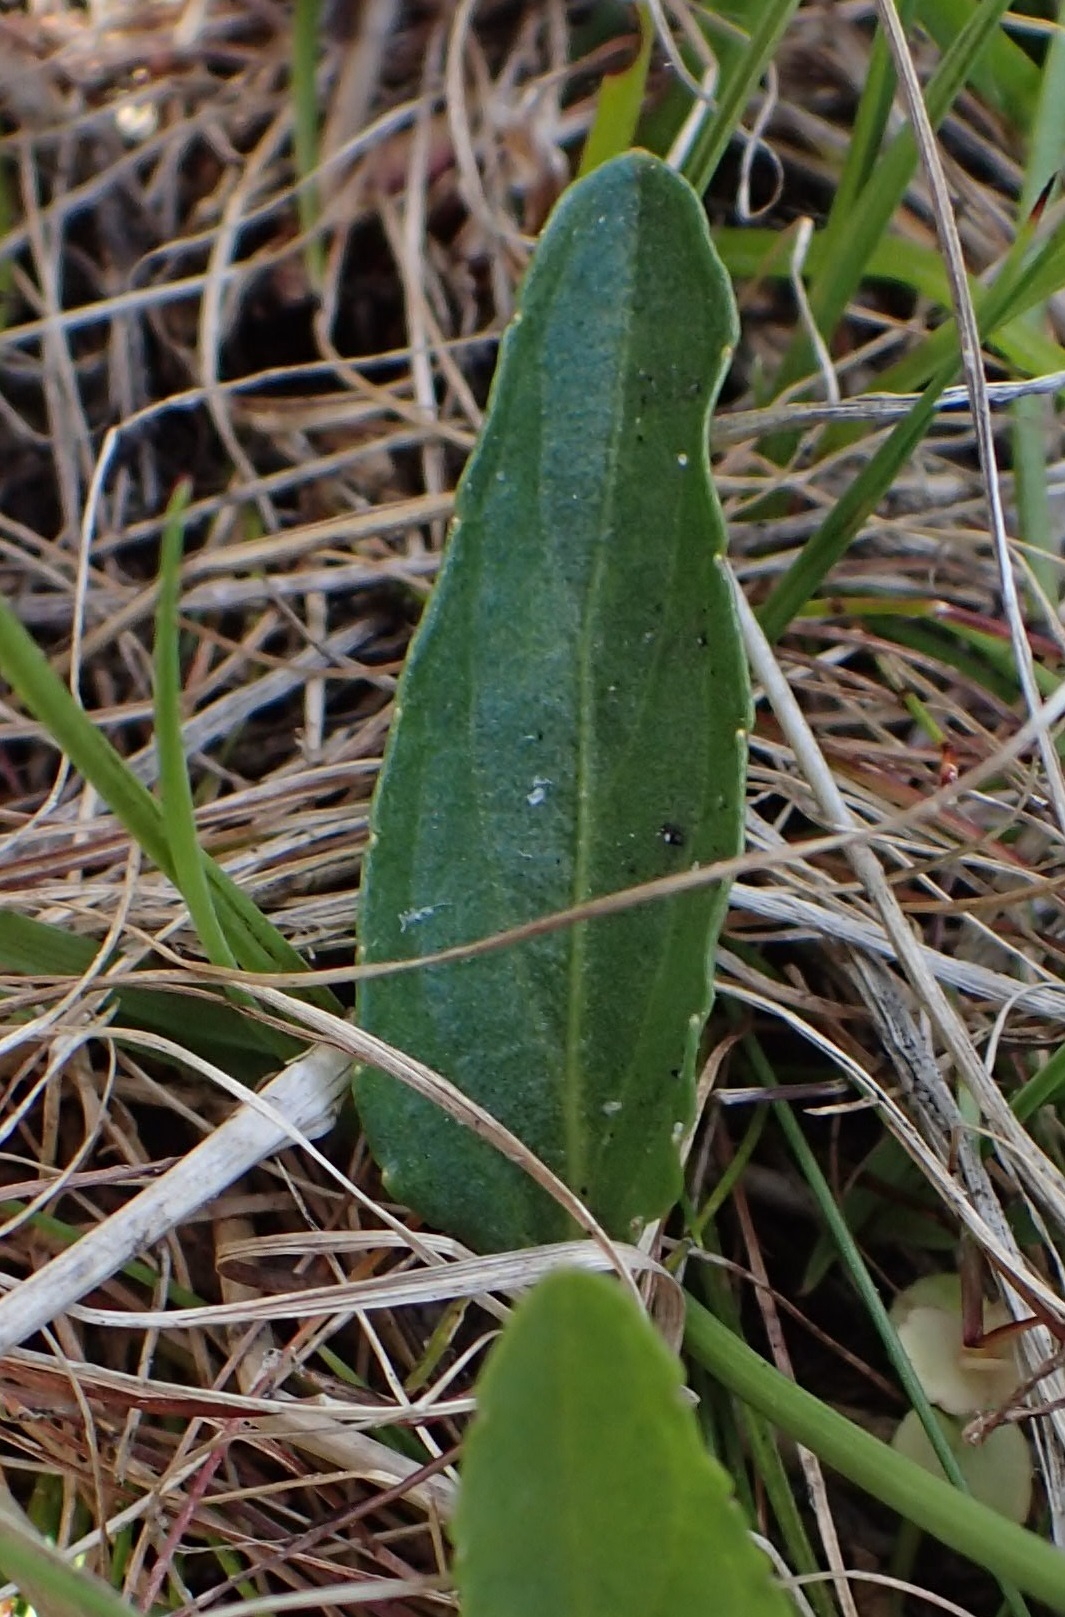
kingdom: Plantae
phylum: Tracheophyta
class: Magnoliopsida
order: Malpighiales
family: Violaceae
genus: Viola
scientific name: Viola betonicifolia
